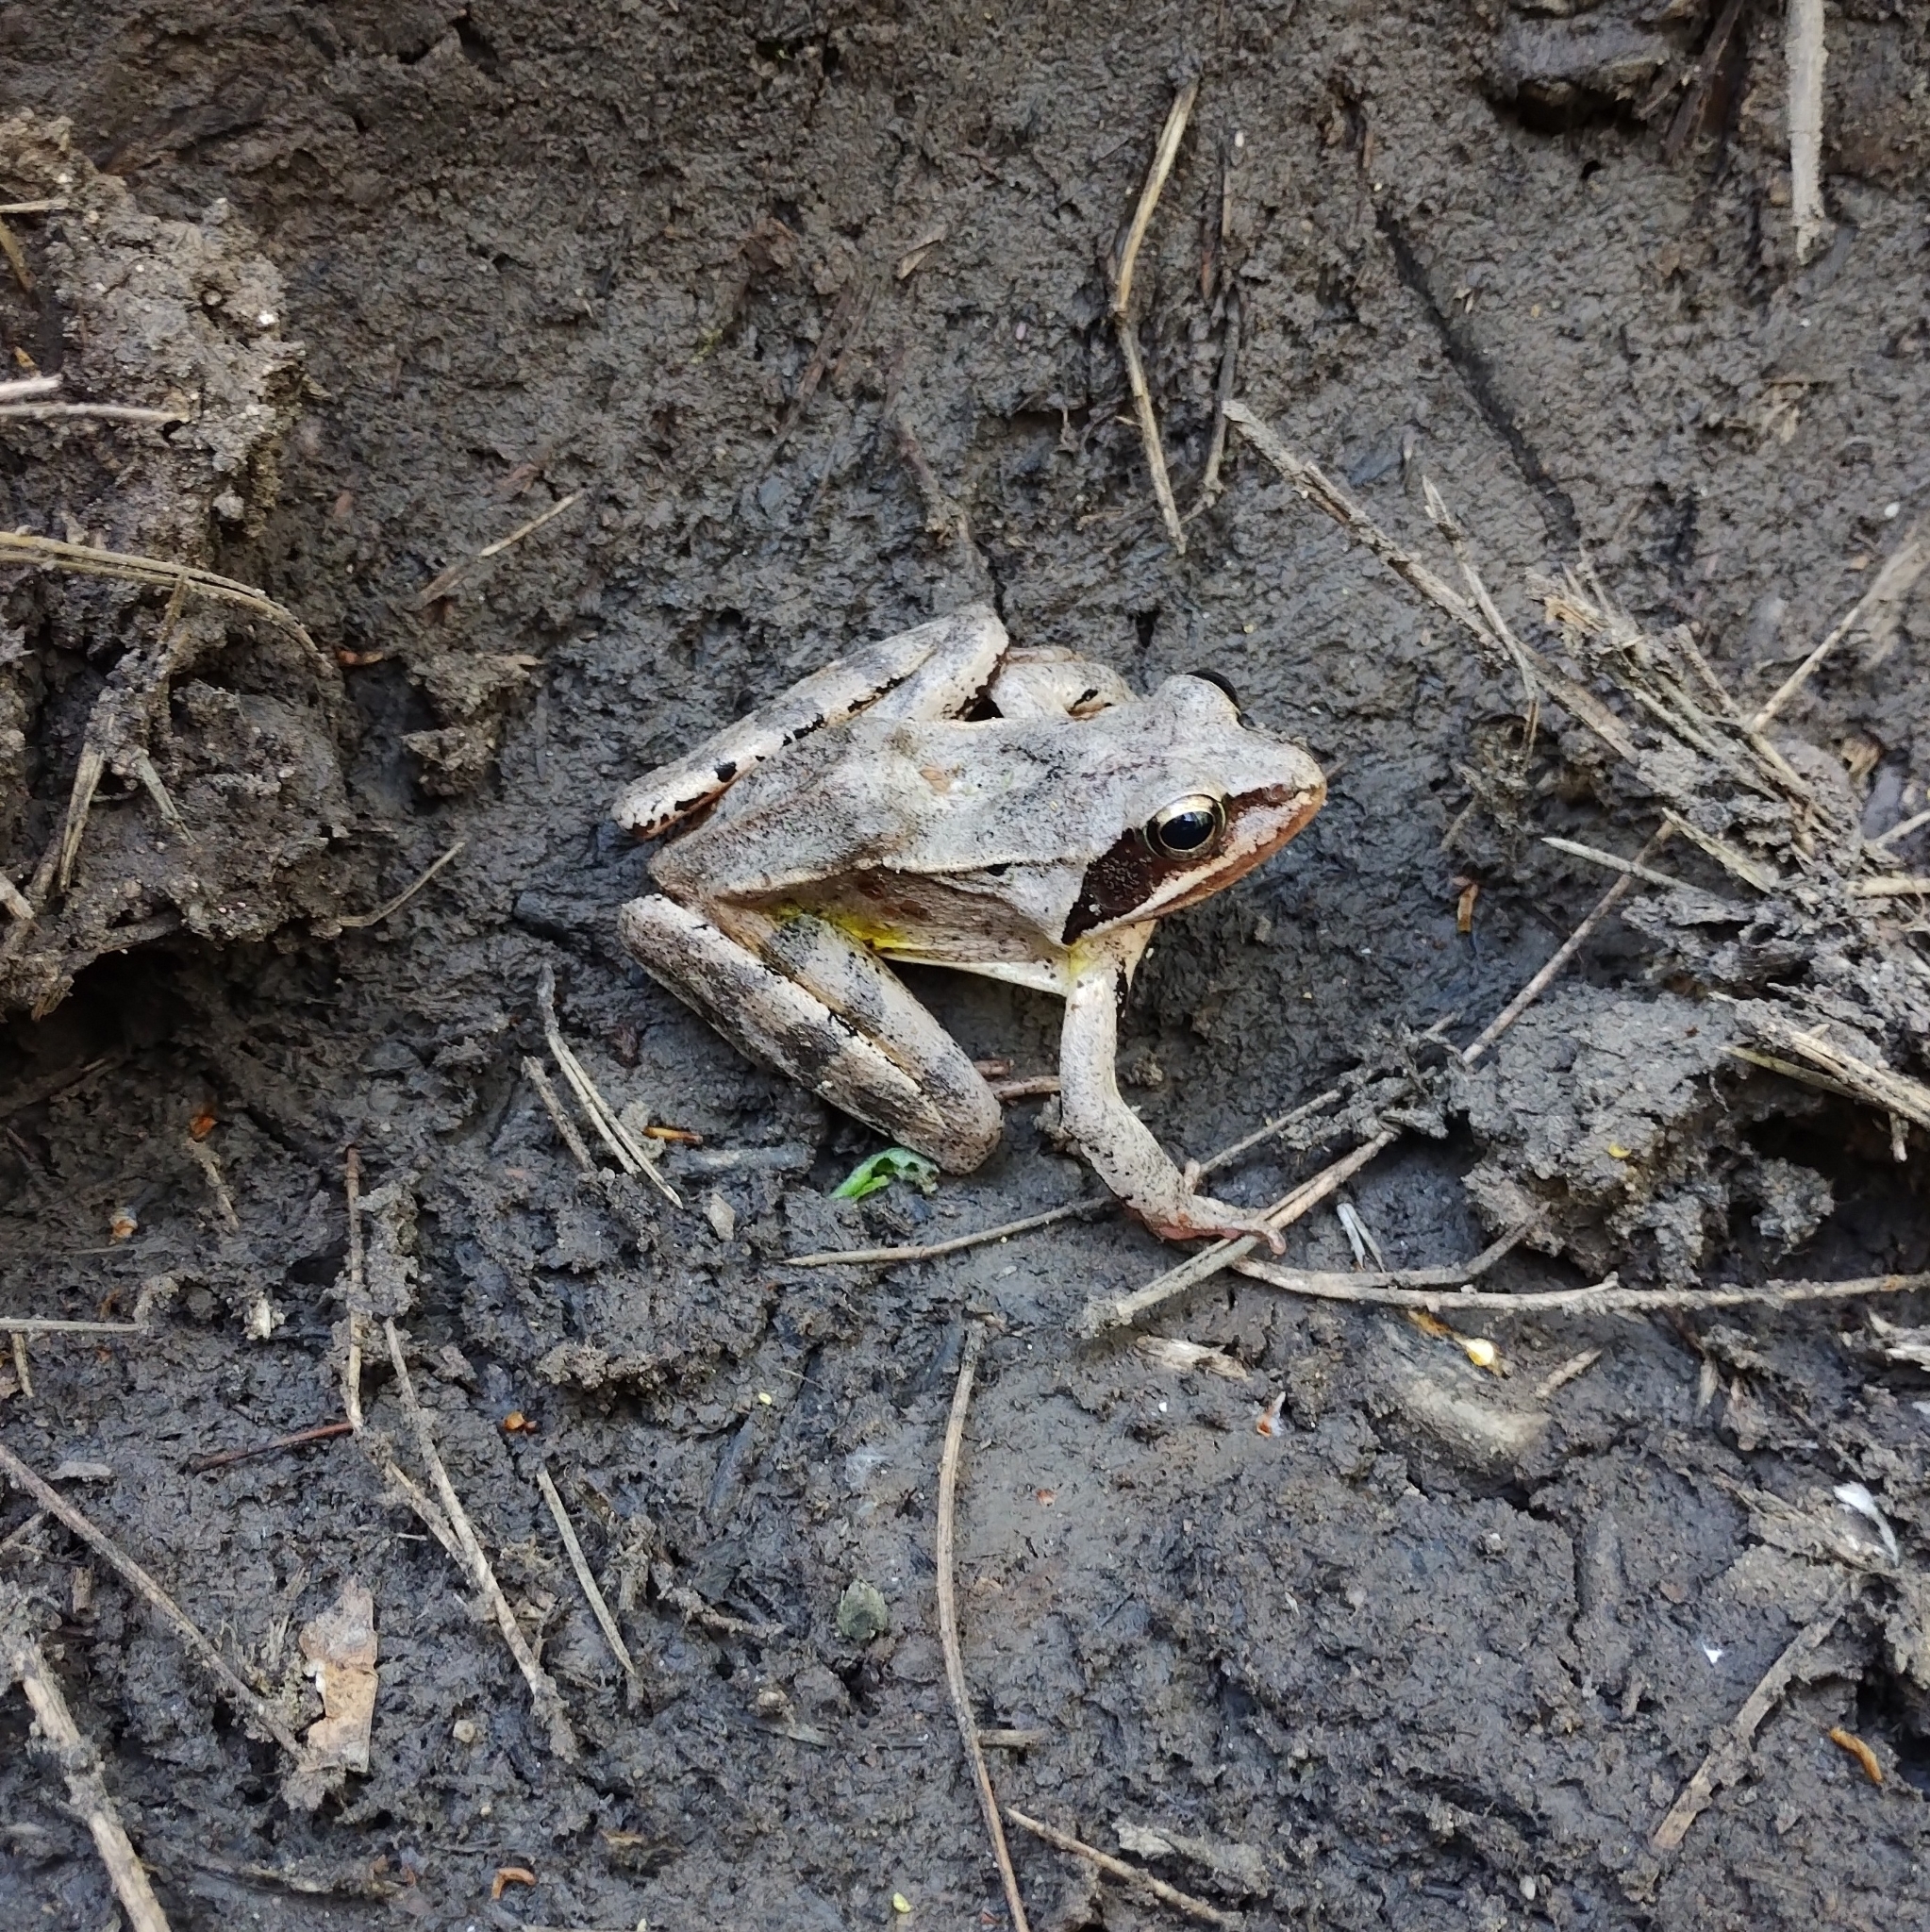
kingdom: Animalia
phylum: Chordata
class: Amphibia
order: Anura
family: Ranidae
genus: Rana
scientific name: Rana dalmatina
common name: Agile frog
